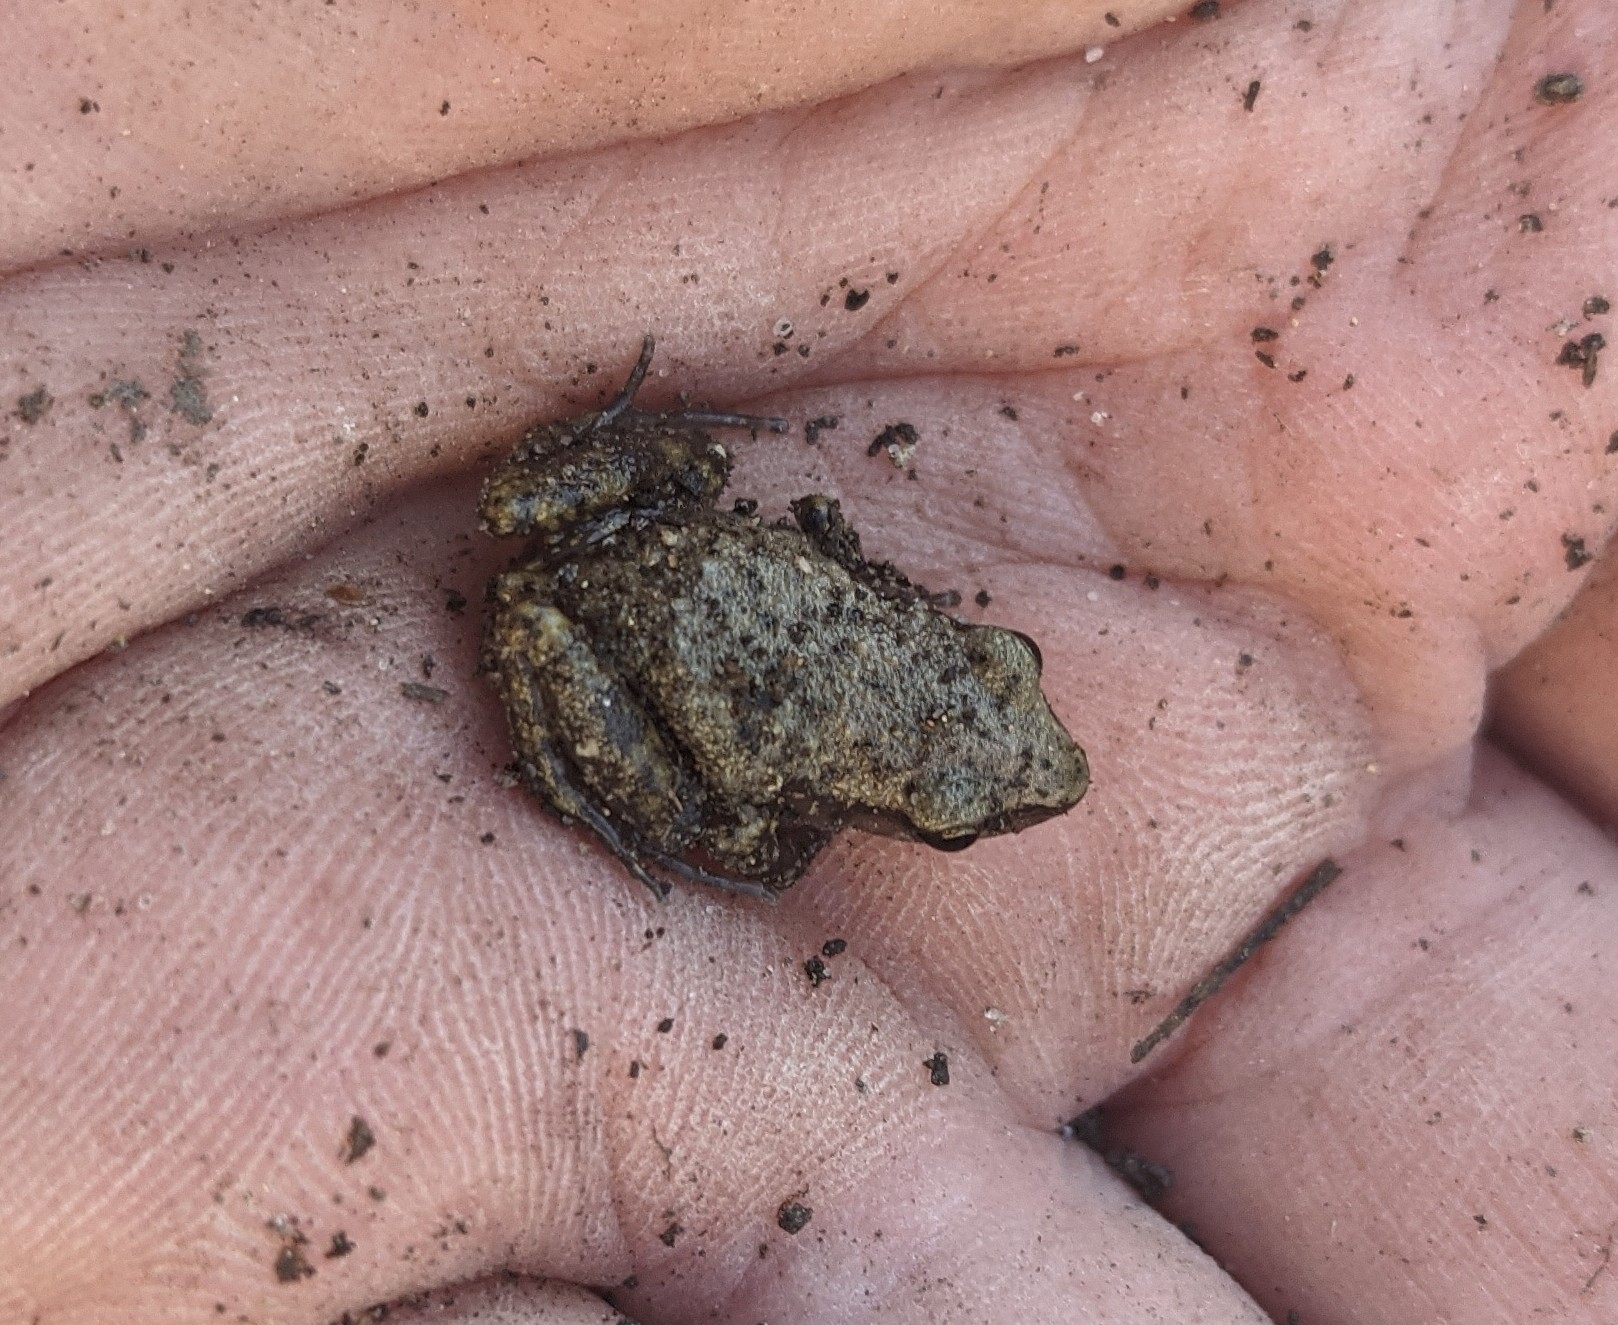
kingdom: Animalia
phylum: Chordata
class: Amphibia
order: Anura
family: Eleutherodactylidae
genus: Eleutherodactylus
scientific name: Eleutherodactylus campi
